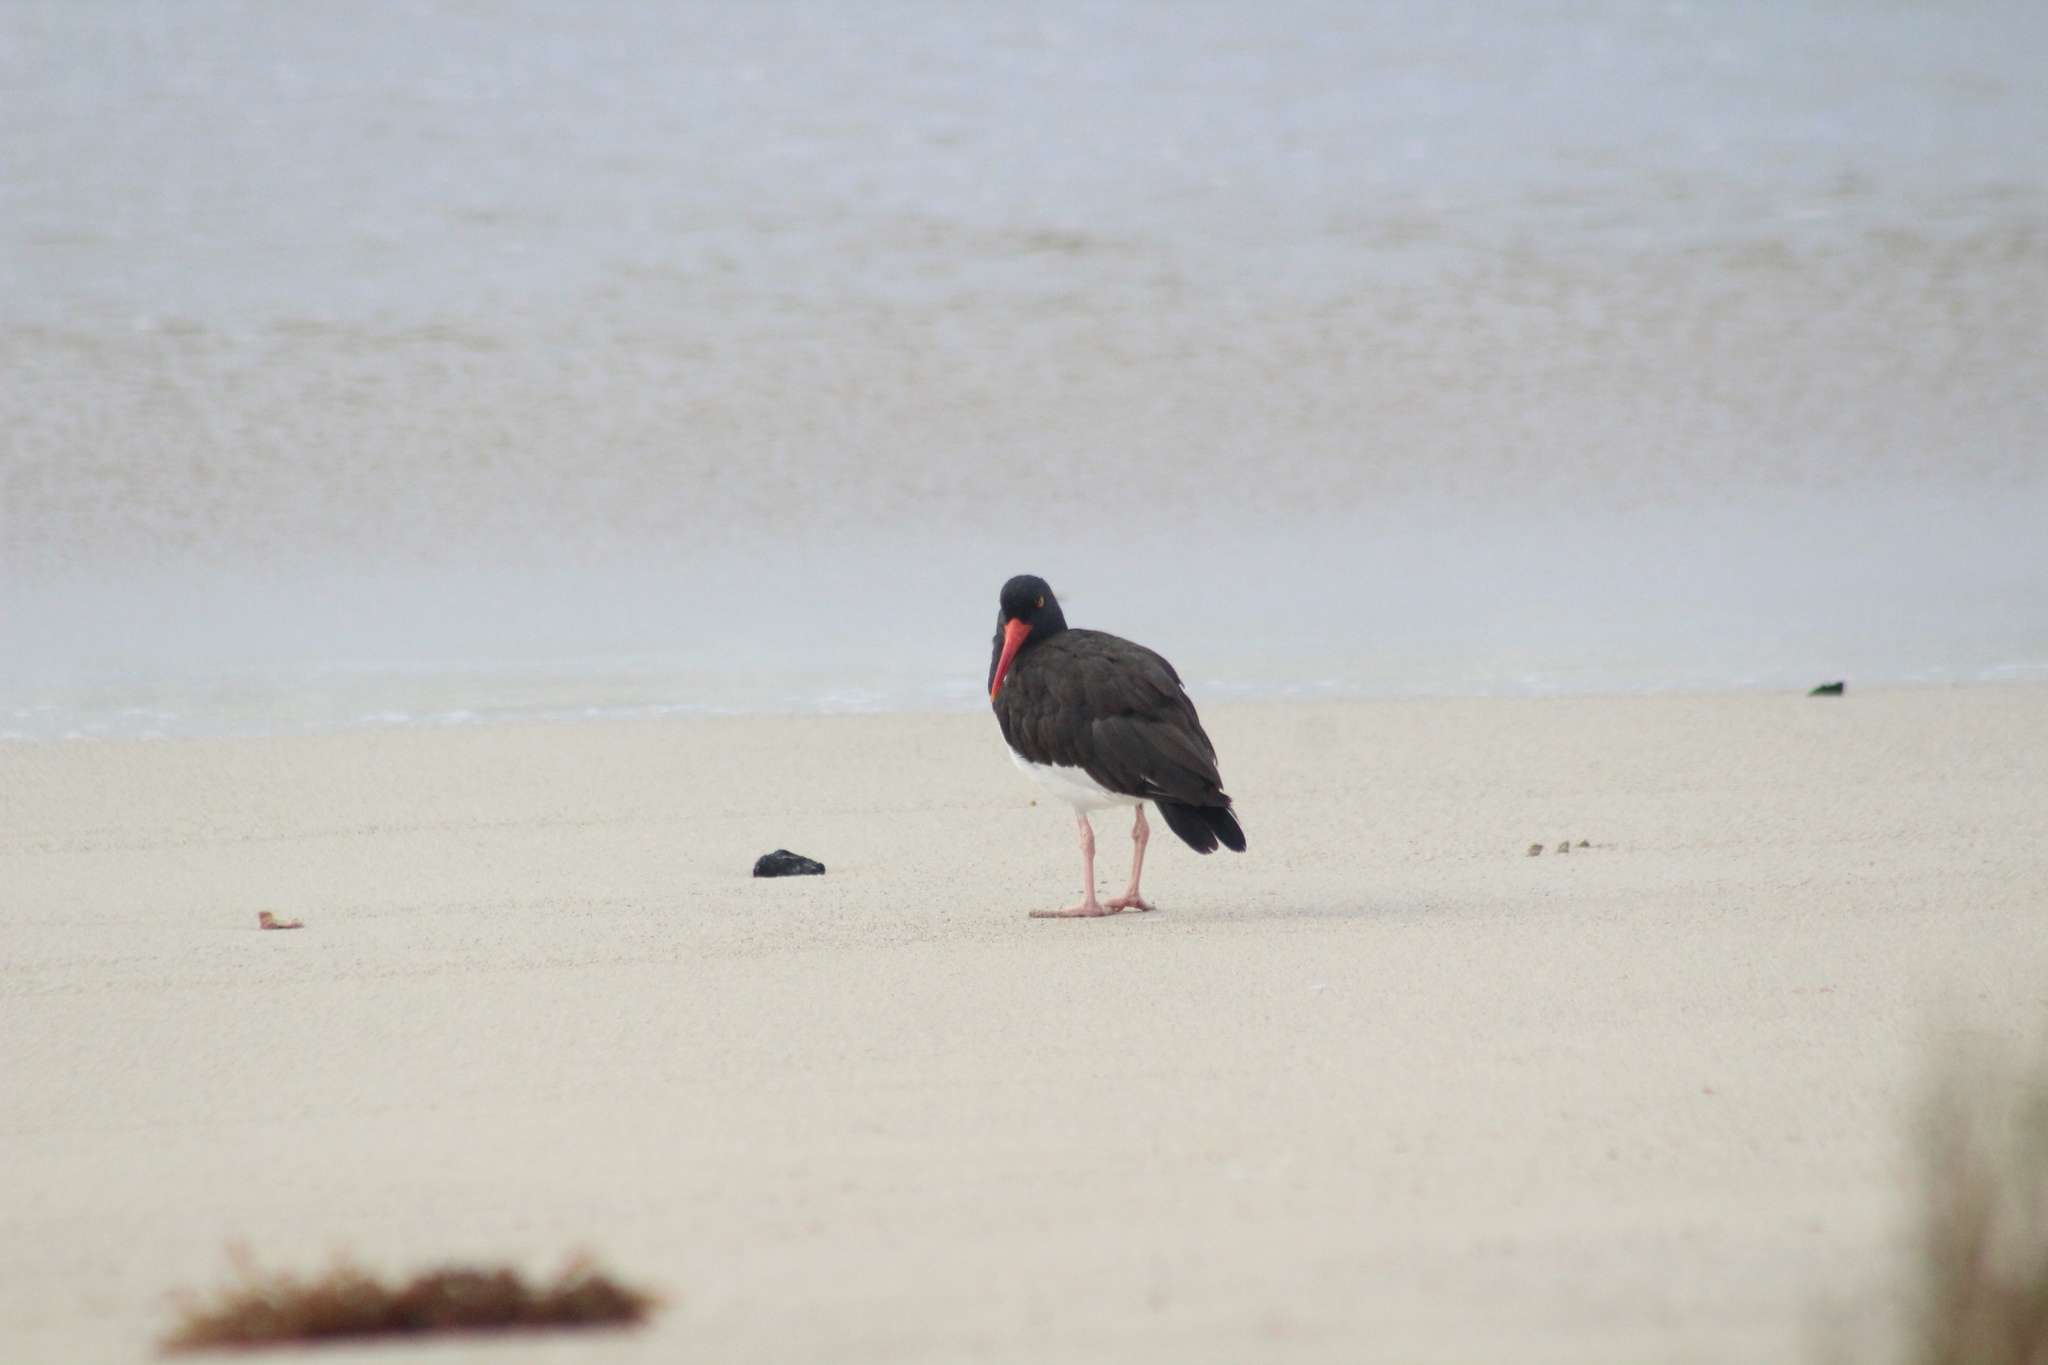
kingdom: Animalia
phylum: Chordata
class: Aves
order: Charadriiformes
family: Haematopodidae
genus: Haematopus
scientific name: Haematopus palliatus
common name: American oystercatcher
